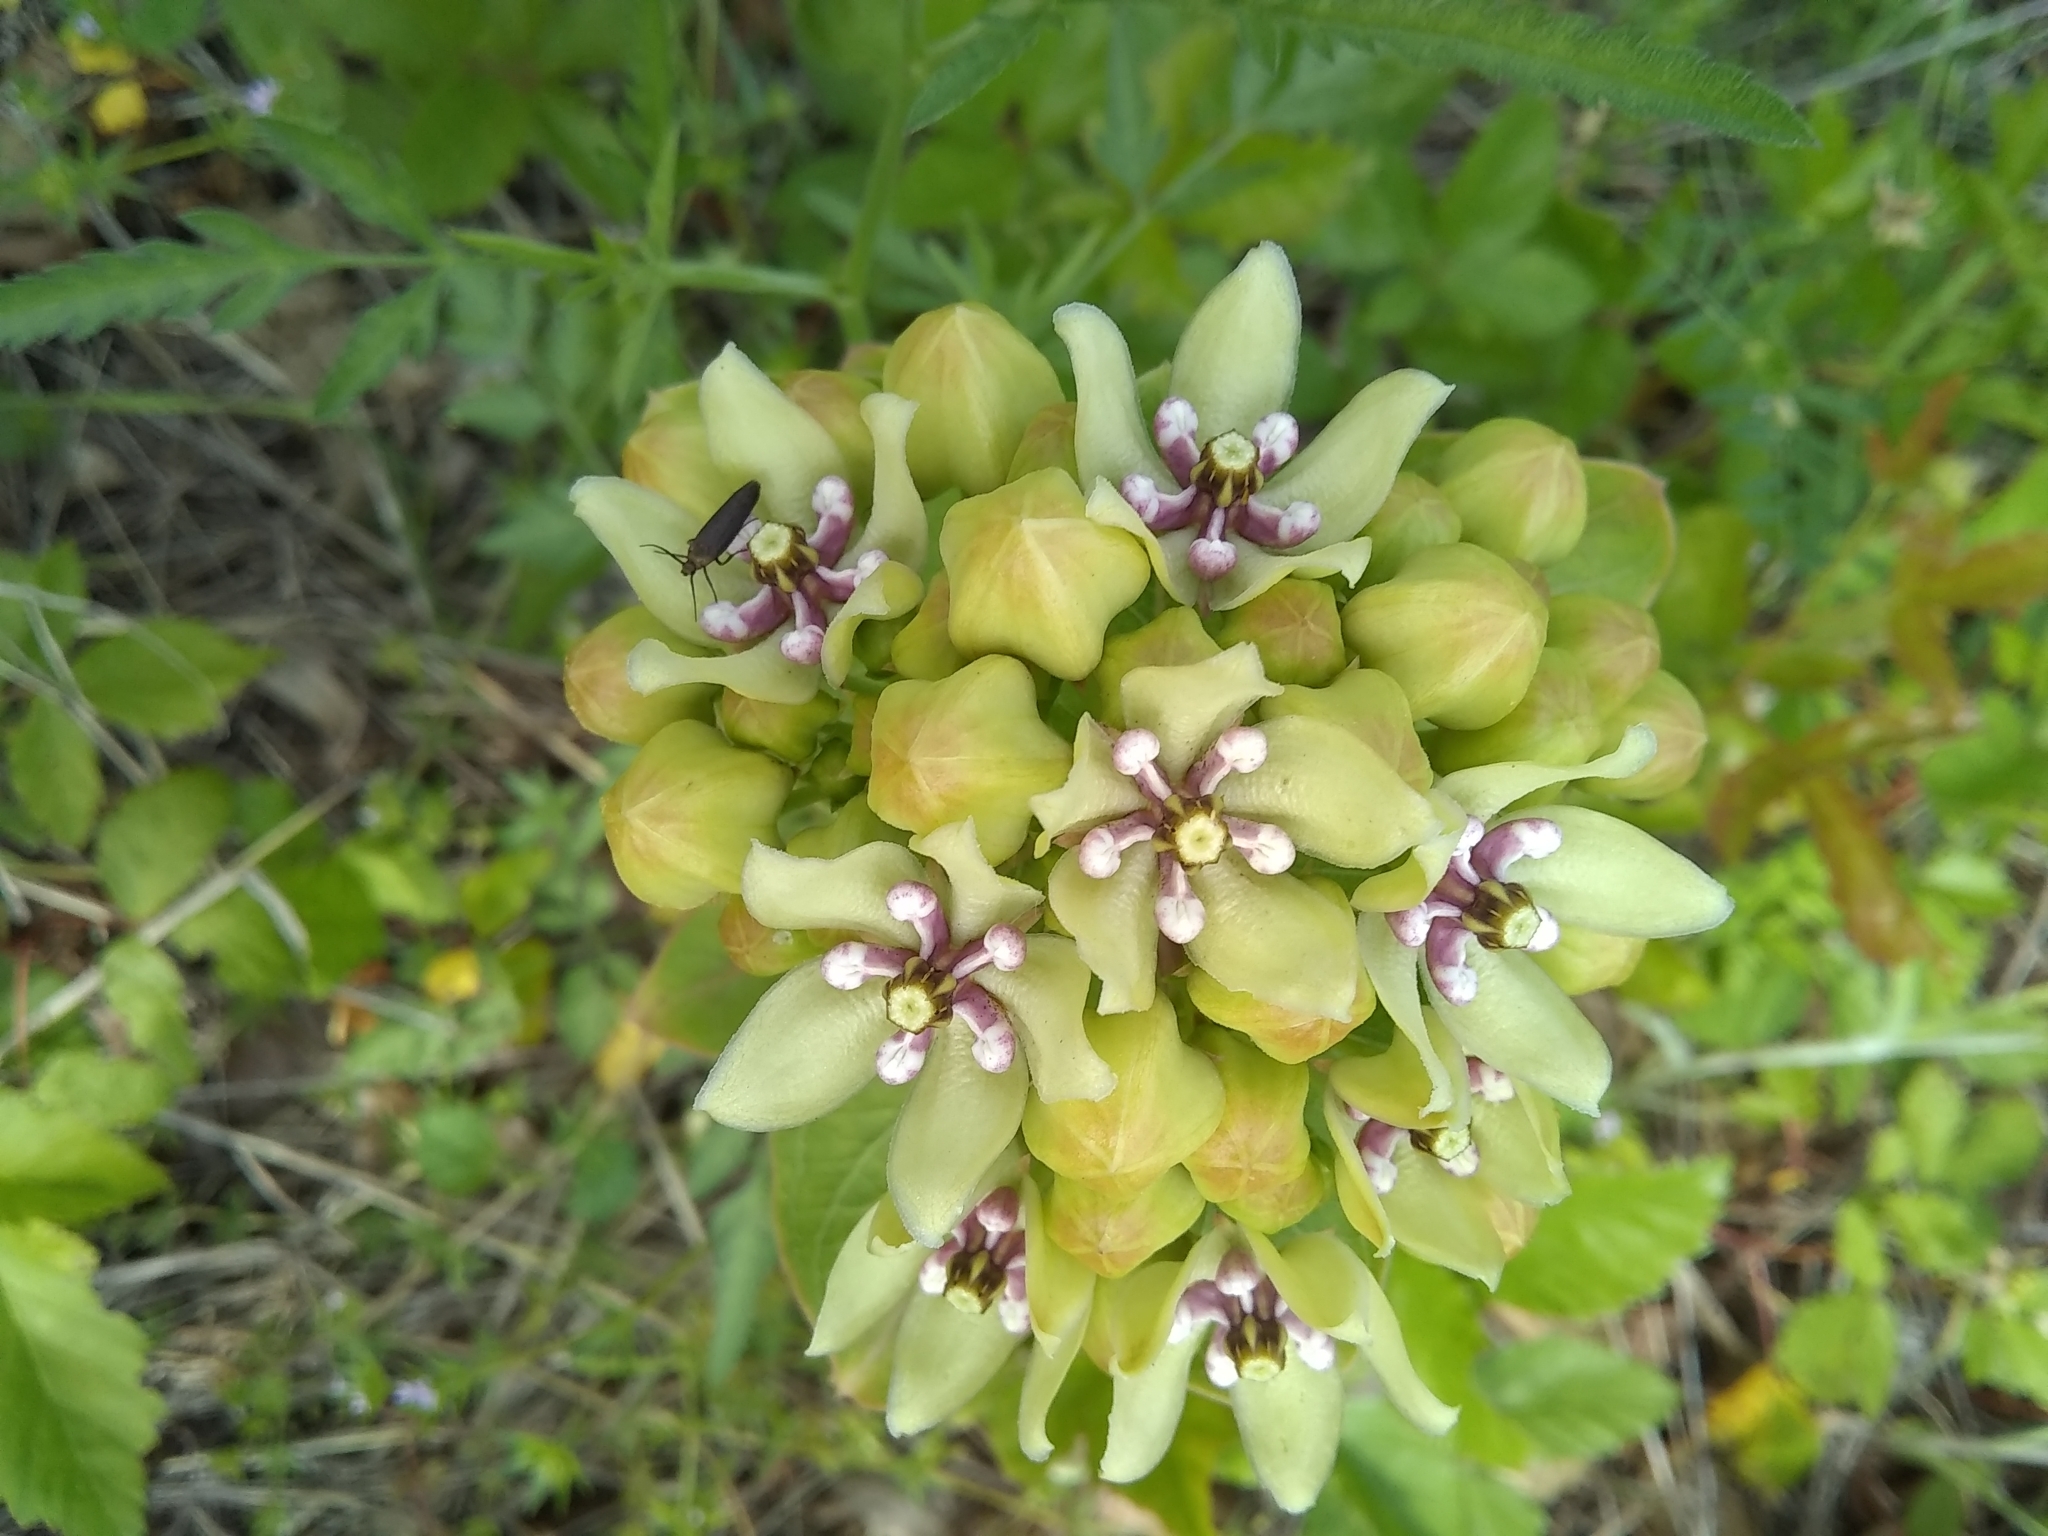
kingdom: Plantae
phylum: Tracheophyta
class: Magnoliopsida
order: Gentianales
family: Apocynaceae
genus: Asclepias
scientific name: Asclepias viridis
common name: Antelope-horns
